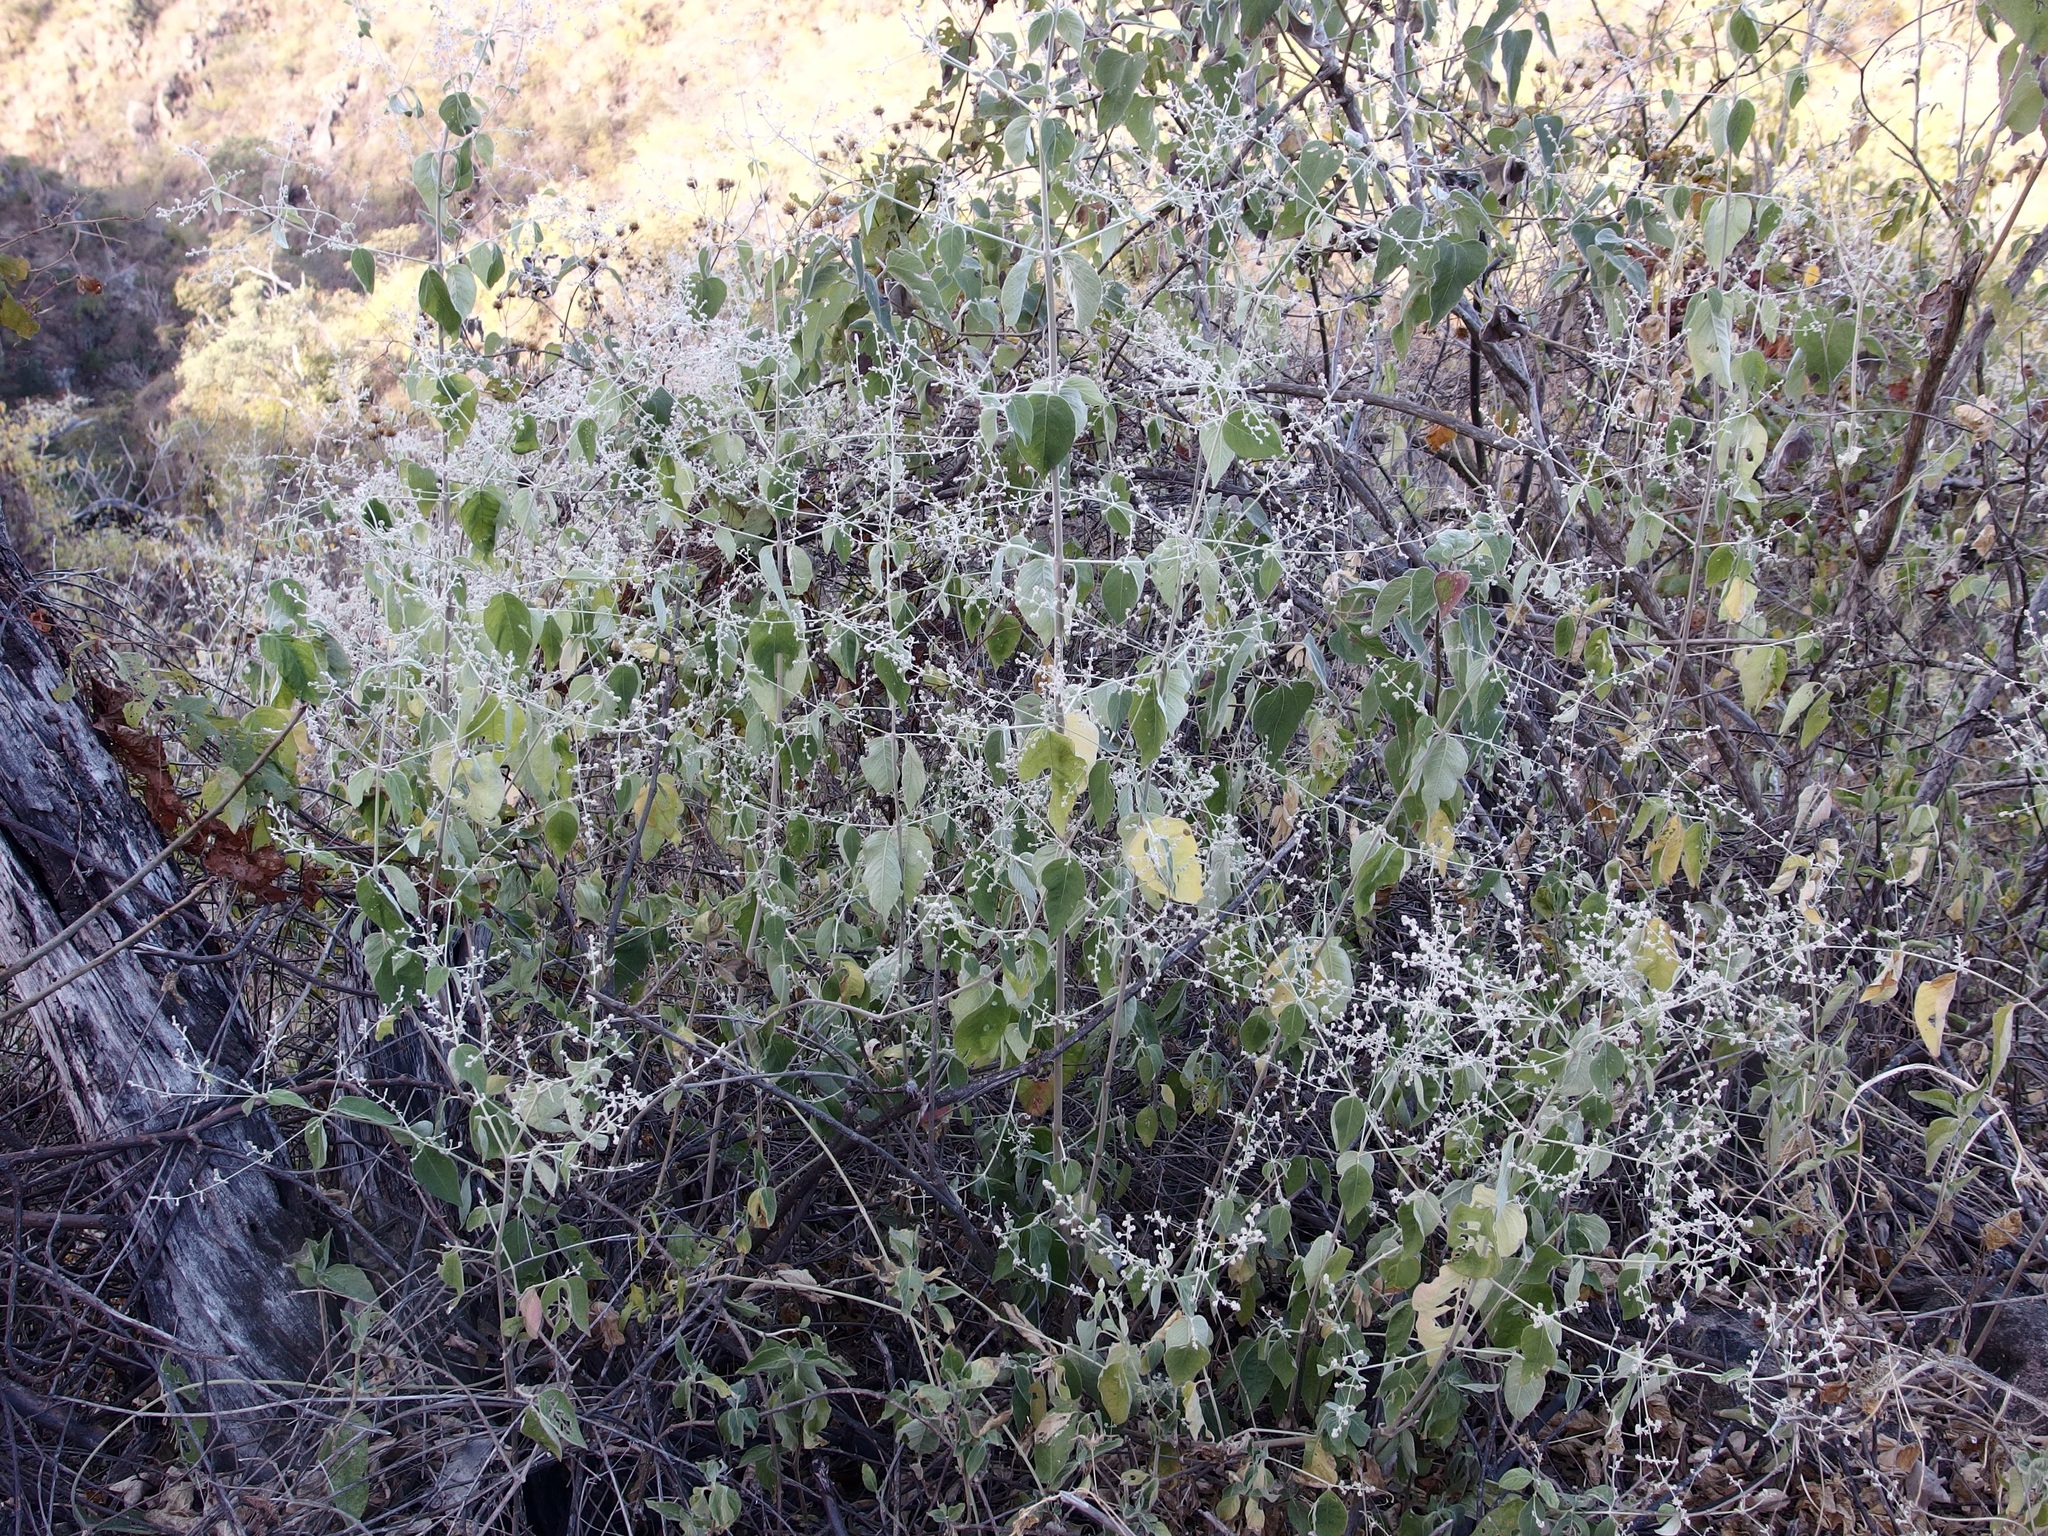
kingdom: Plantae
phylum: Tracheophyta
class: Magnoliopsida
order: Caryophyllales
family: Amaranthaceae
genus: Iresine
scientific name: Iresine latifolia
